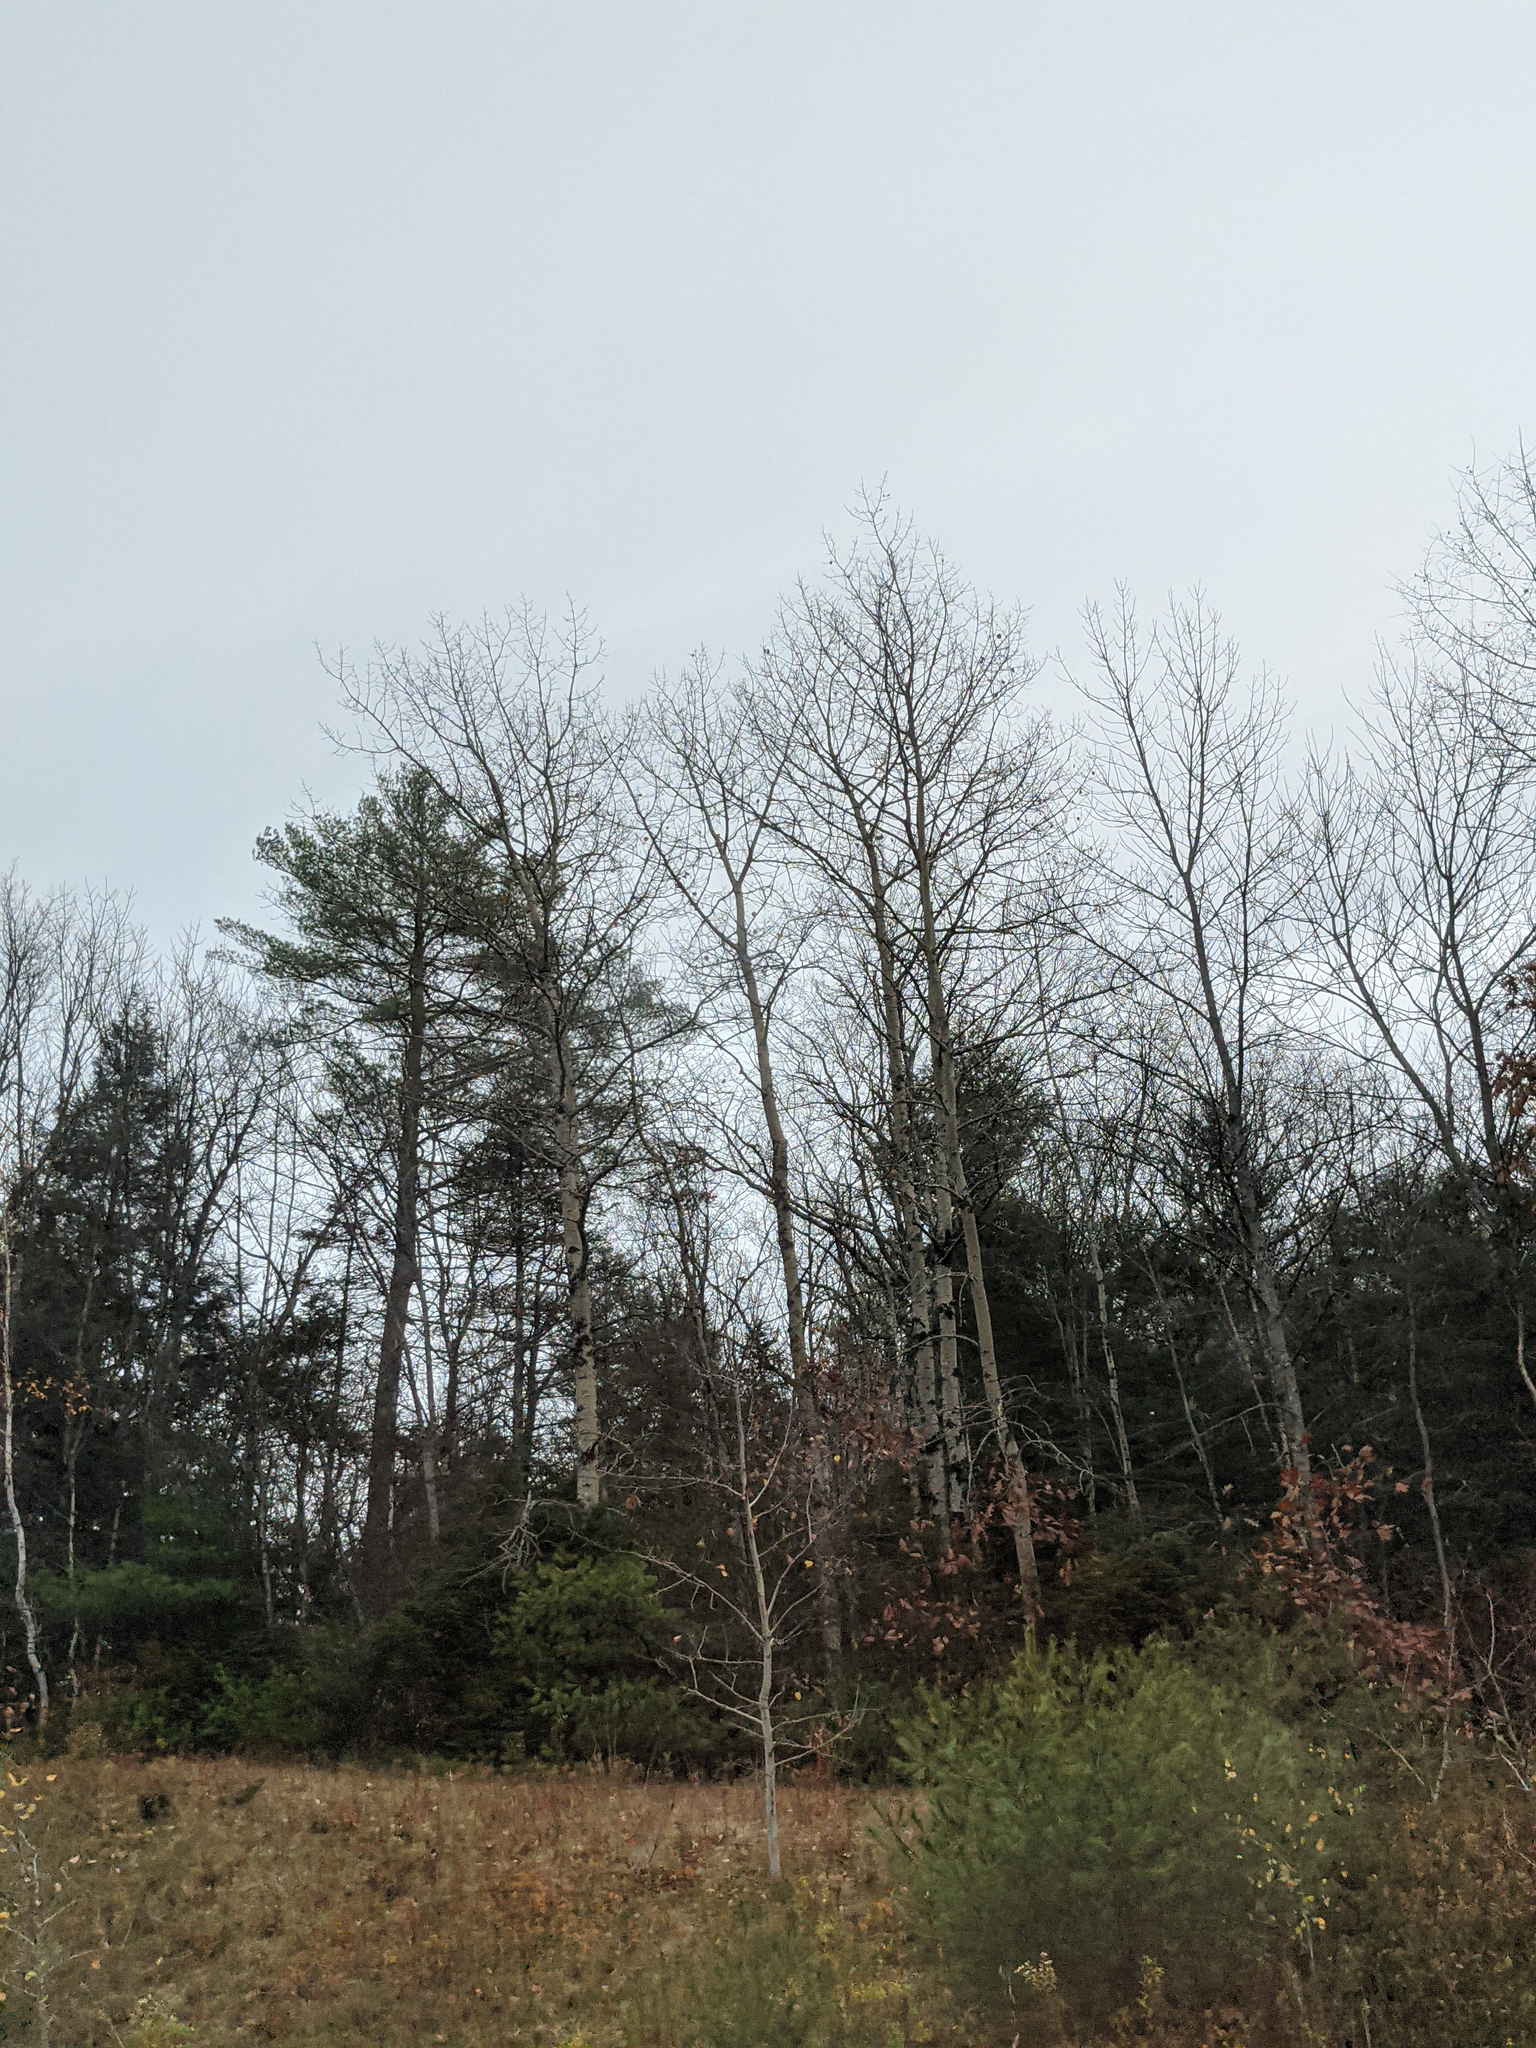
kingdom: Plantae
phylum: Tracheophyta
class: Pinopsida
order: Pinales
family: Pinaceae
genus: Pinus
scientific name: Pinus strobus
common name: Weymouth pine
